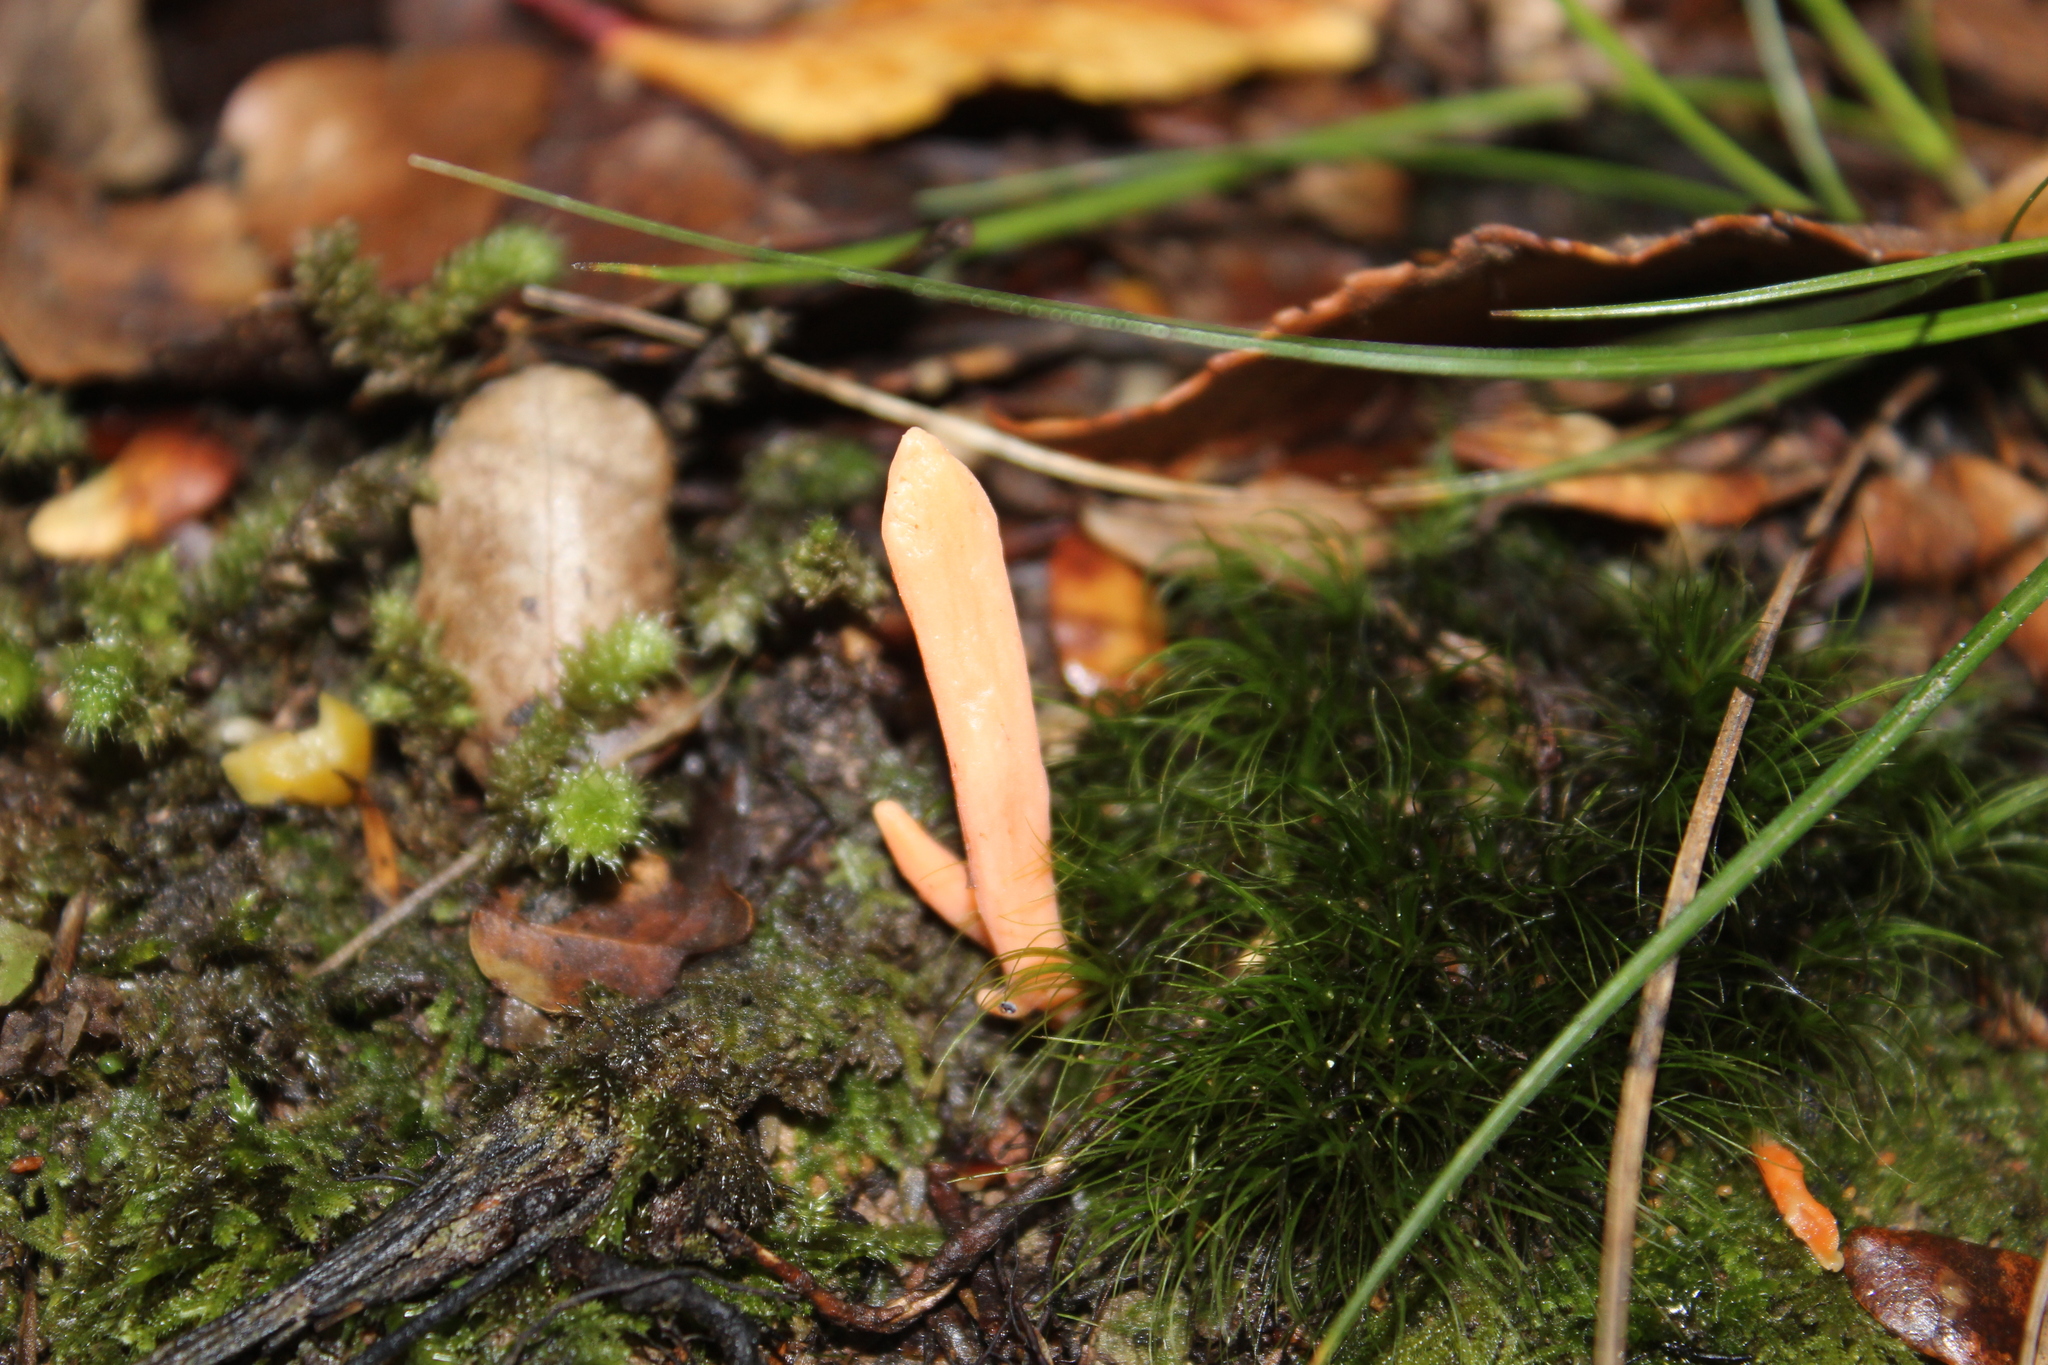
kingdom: Fungi
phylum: Basidiomycota
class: Agaricomycetes
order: Agaricales
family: Clavariaceae
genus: Clavulinopsis
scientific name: Clavulinopsis sulcata
